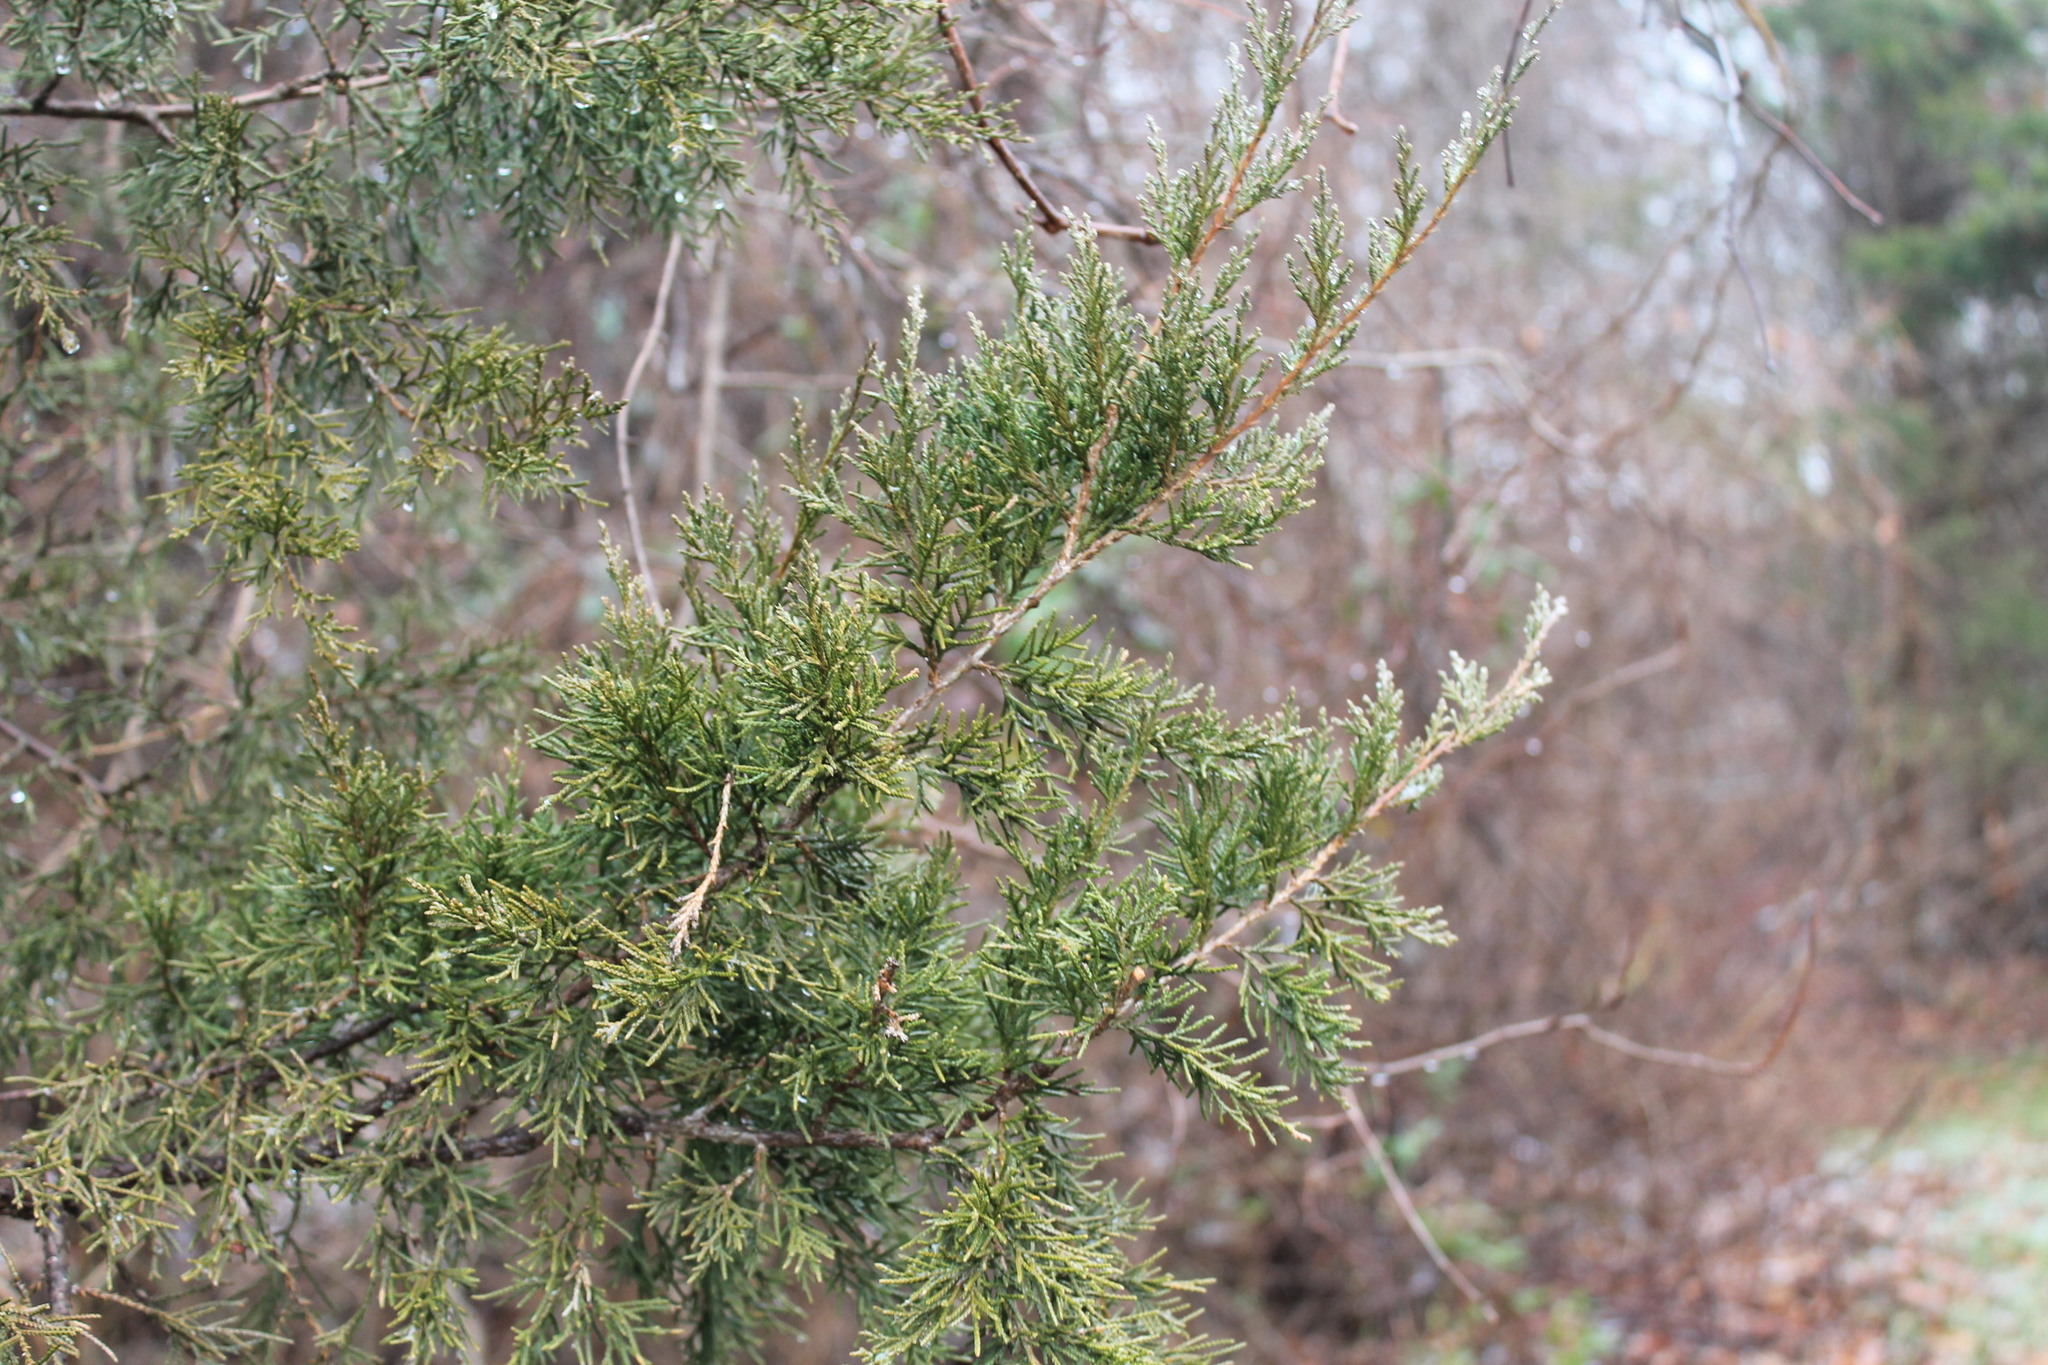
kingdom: Plantae
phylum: Tracheophyta
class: Pinopsida
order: Pinales
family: Cupressaceae
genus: Juniperus
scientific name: Juniperus virginiana
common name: Red juniper
